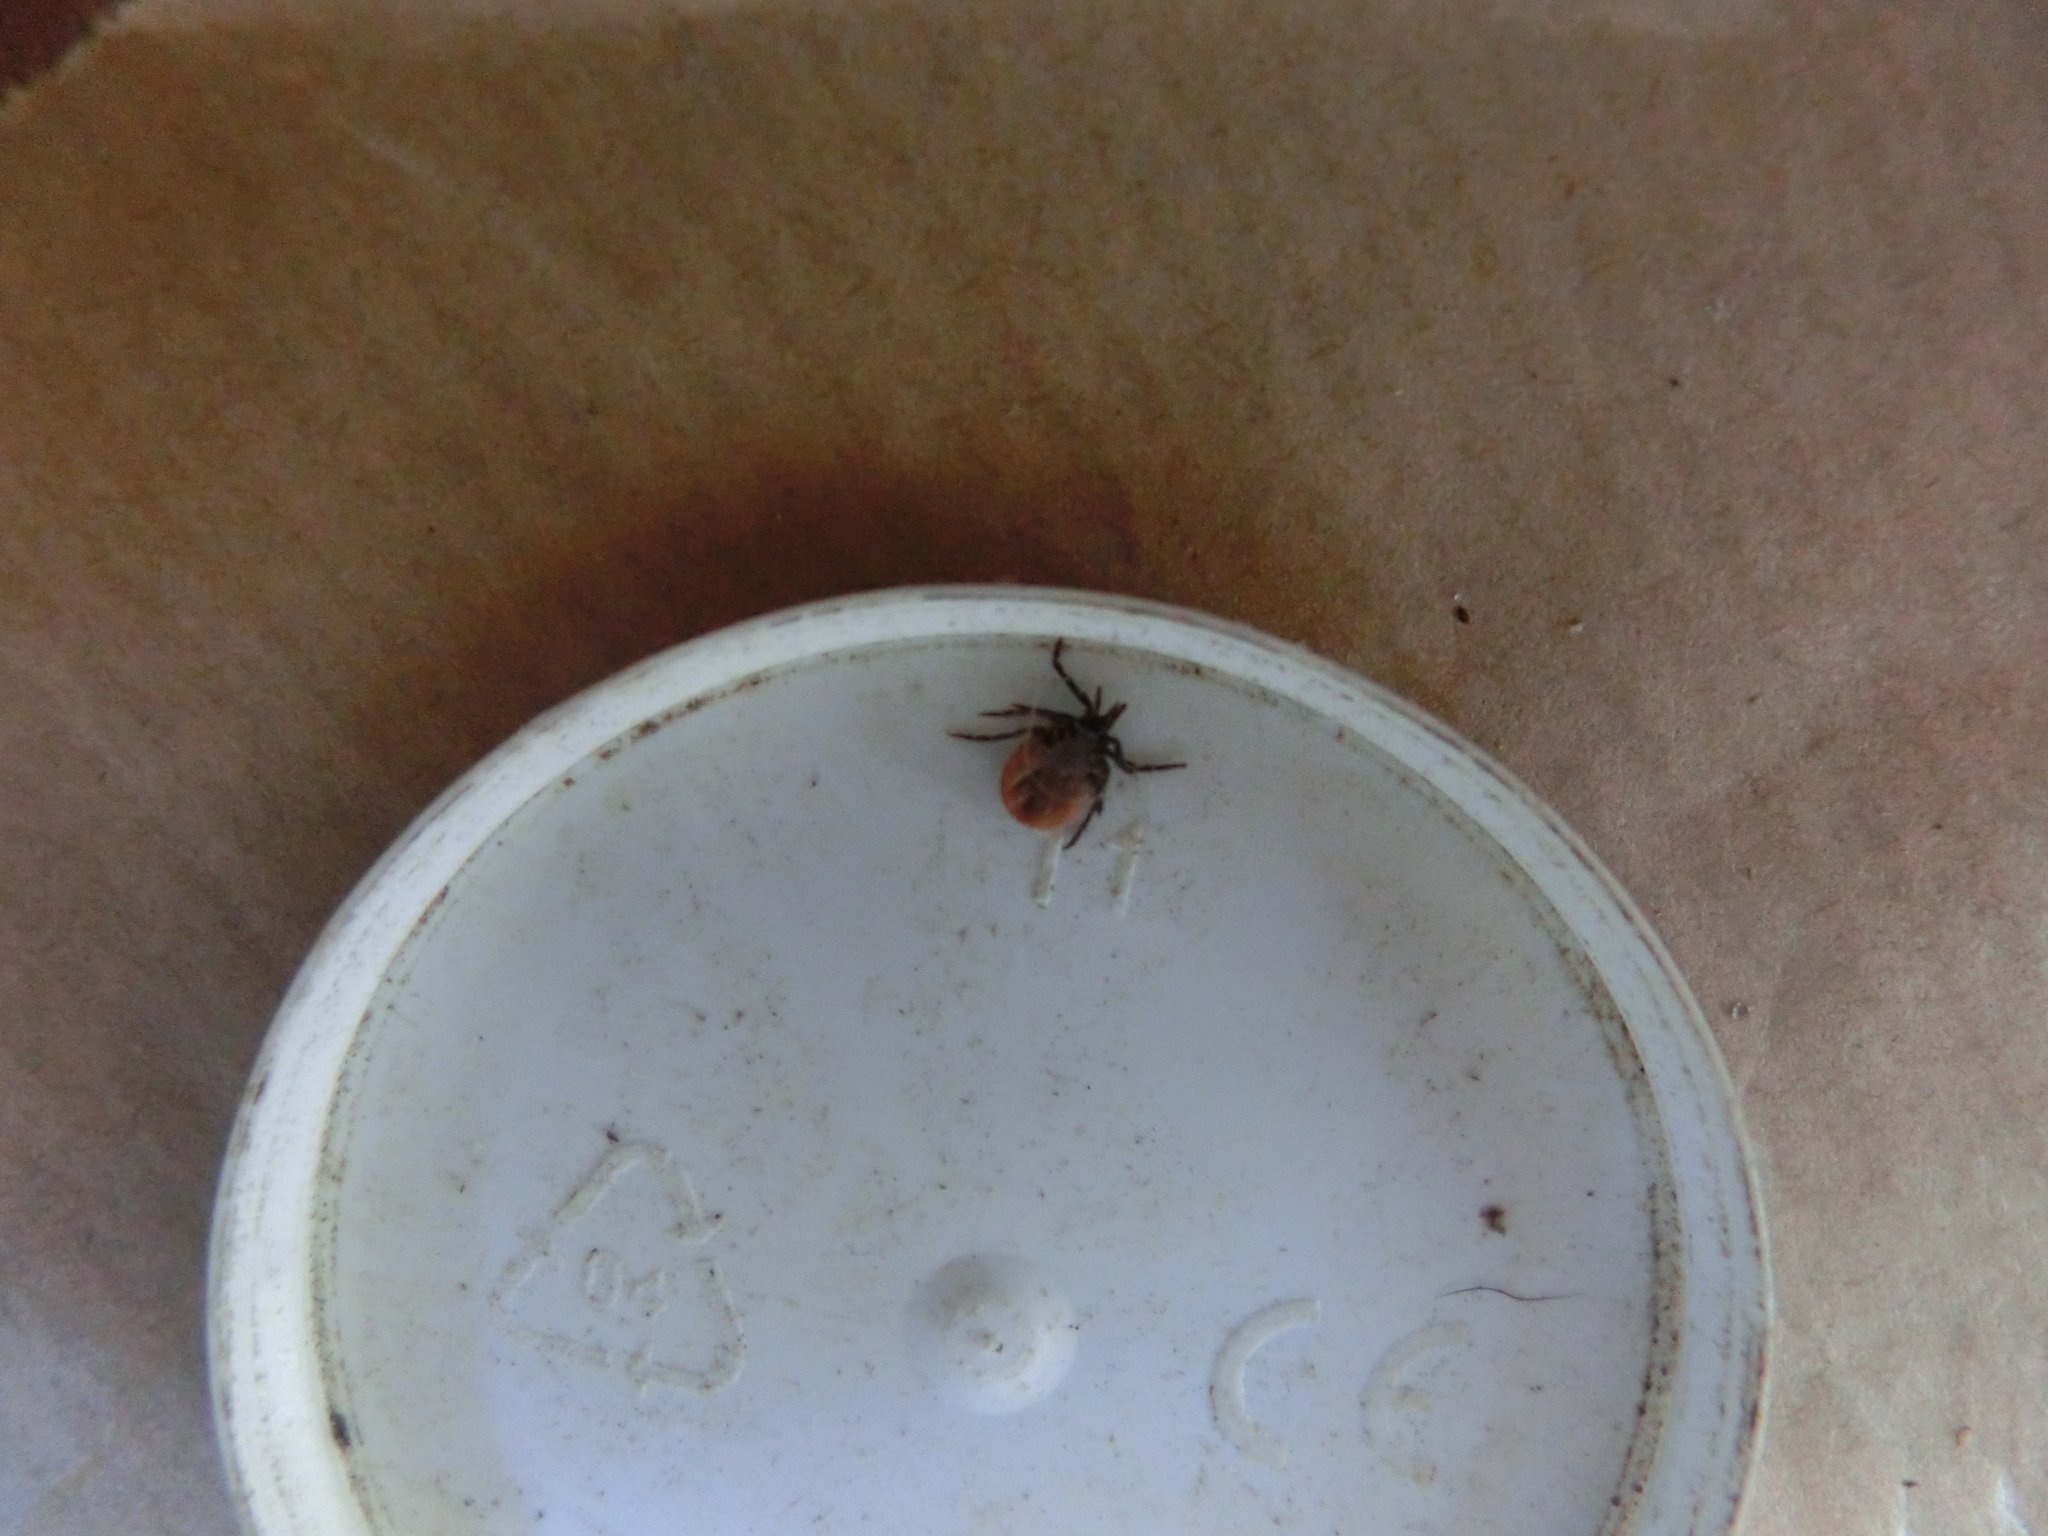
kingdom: Animalia
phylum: Arthropoda
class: Arachnida
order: Ixodida
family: Ixodidae
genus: Ixodes
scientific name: Ixodes ricinus
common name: Castor bean tick
